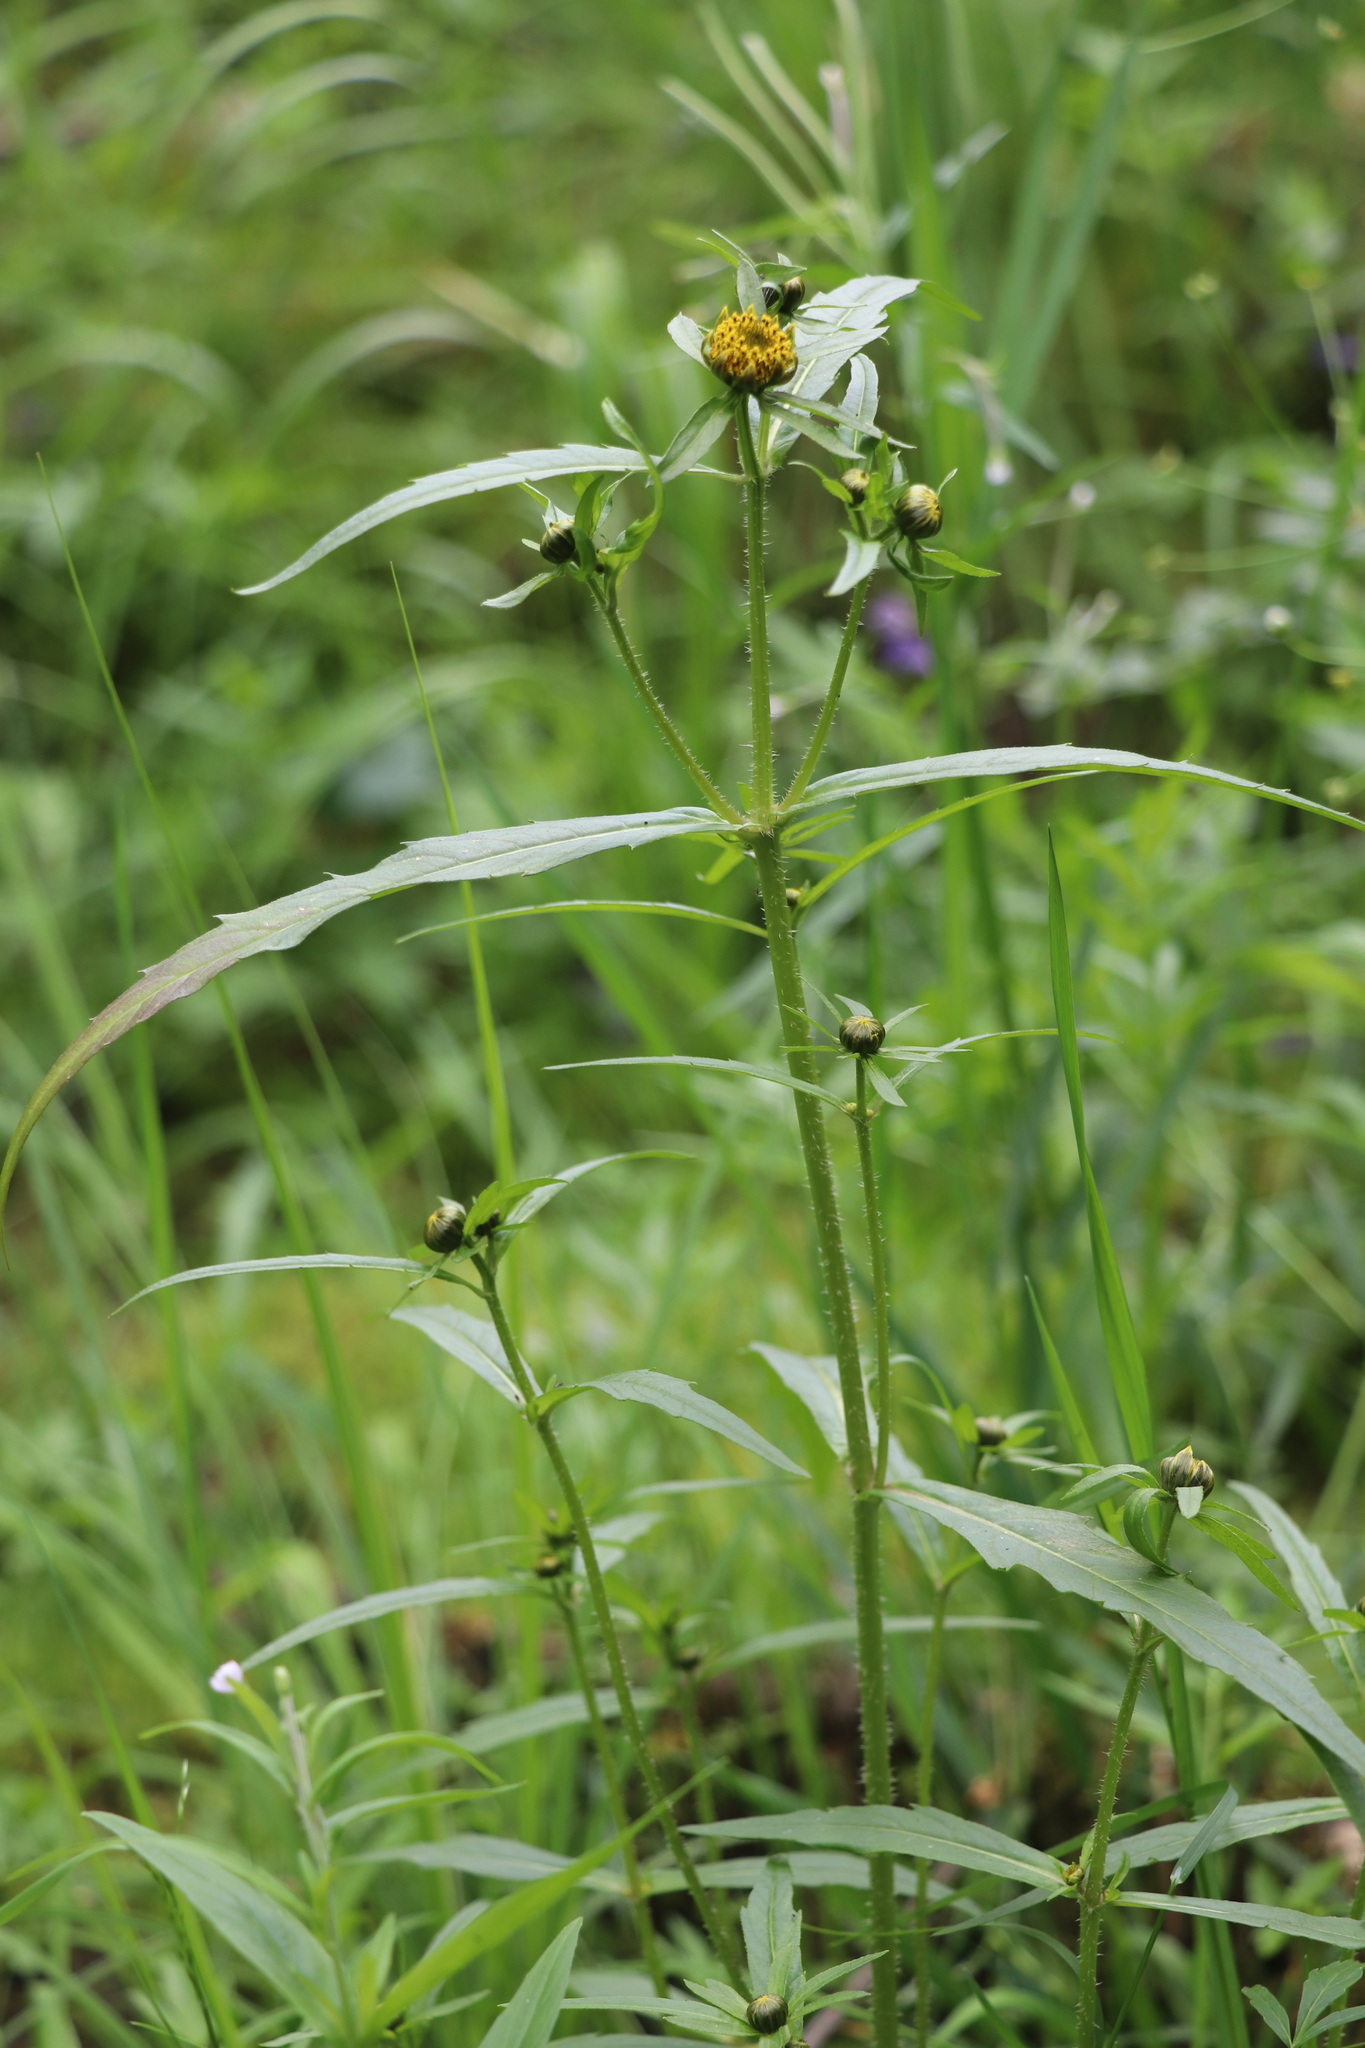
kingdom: Plantae
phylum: Tracheophyta
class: Magnoliopsida
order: Asterales
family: Asteraceae
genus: Bidens
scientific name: Bidens cernua
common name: Nodding bur-marigold
